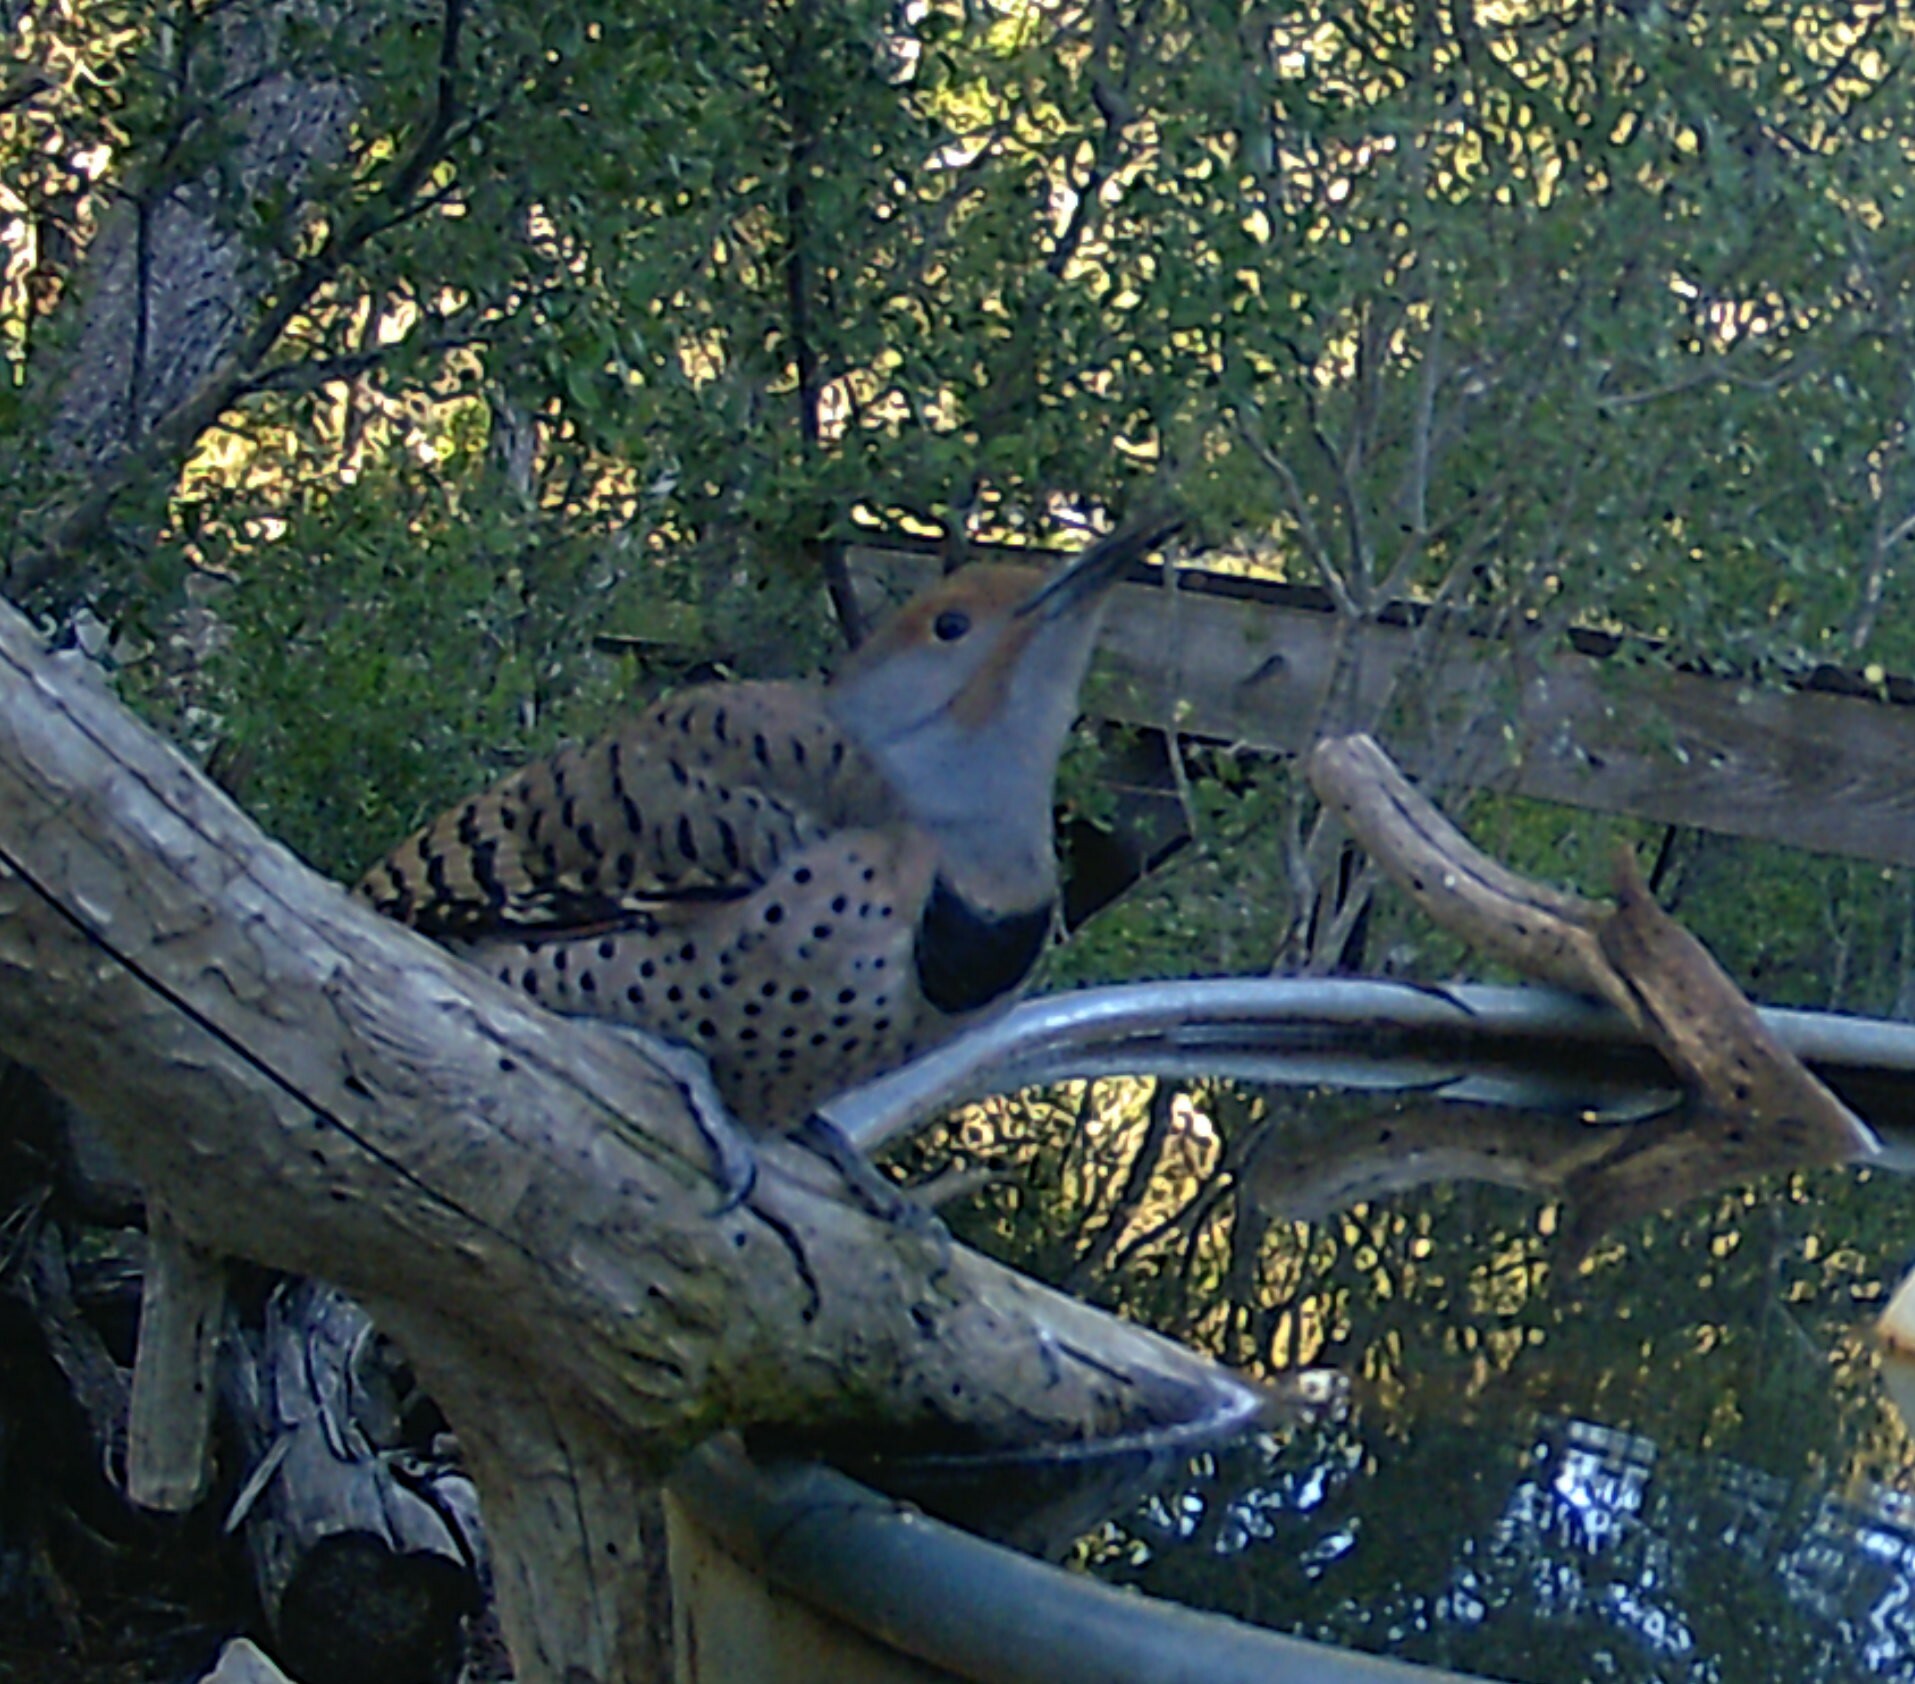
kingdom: Animalia
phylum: Chordata
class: Aves
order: Piciformes
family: Picidae
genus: Colaptes
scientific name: Colaptes auratus
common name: Northern flicker
